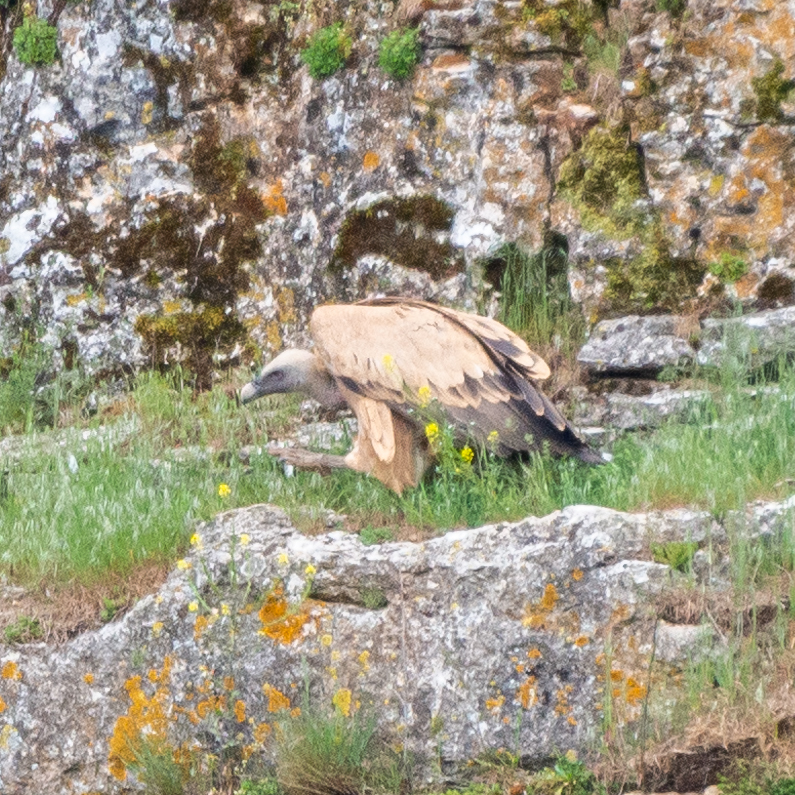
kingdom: Animalia
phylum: Chordata
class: Aves
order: Accipitriformes
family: Accipitridae
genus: Gyps
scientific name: Gyps fulvus
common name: Griffon vulture
